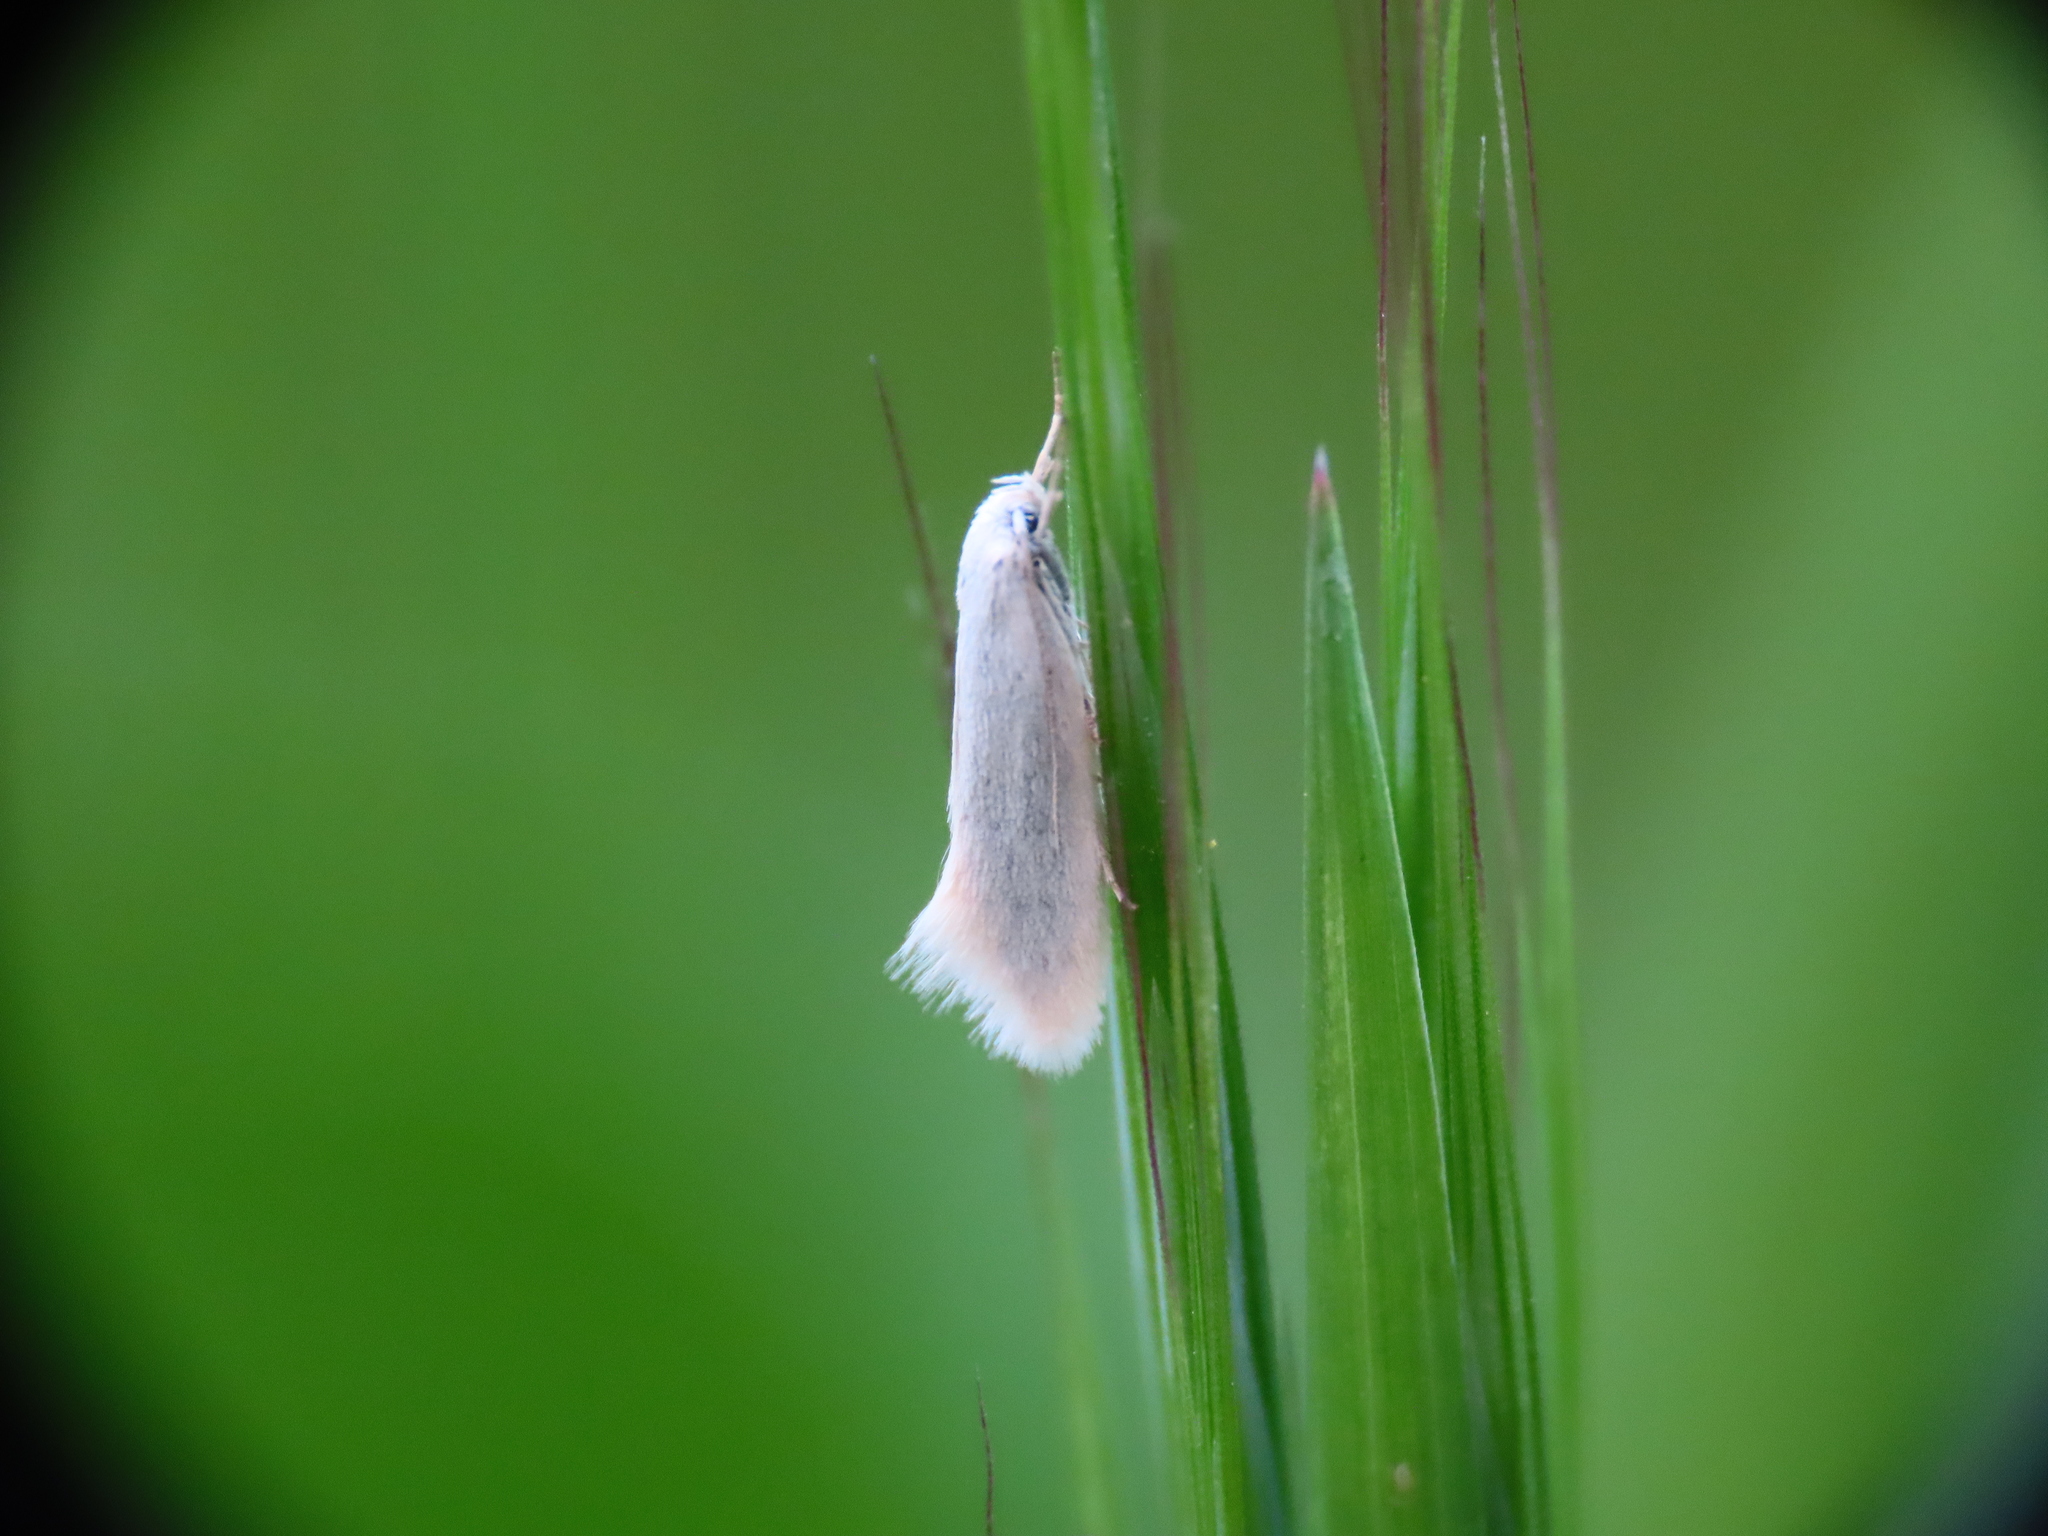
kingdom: Animalia
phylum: Arthropoda
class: Insecta
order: Lepidoptera
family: Elachistidae
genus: Elachista
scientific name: Elachista argentella
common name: Swan-feather dwarf
